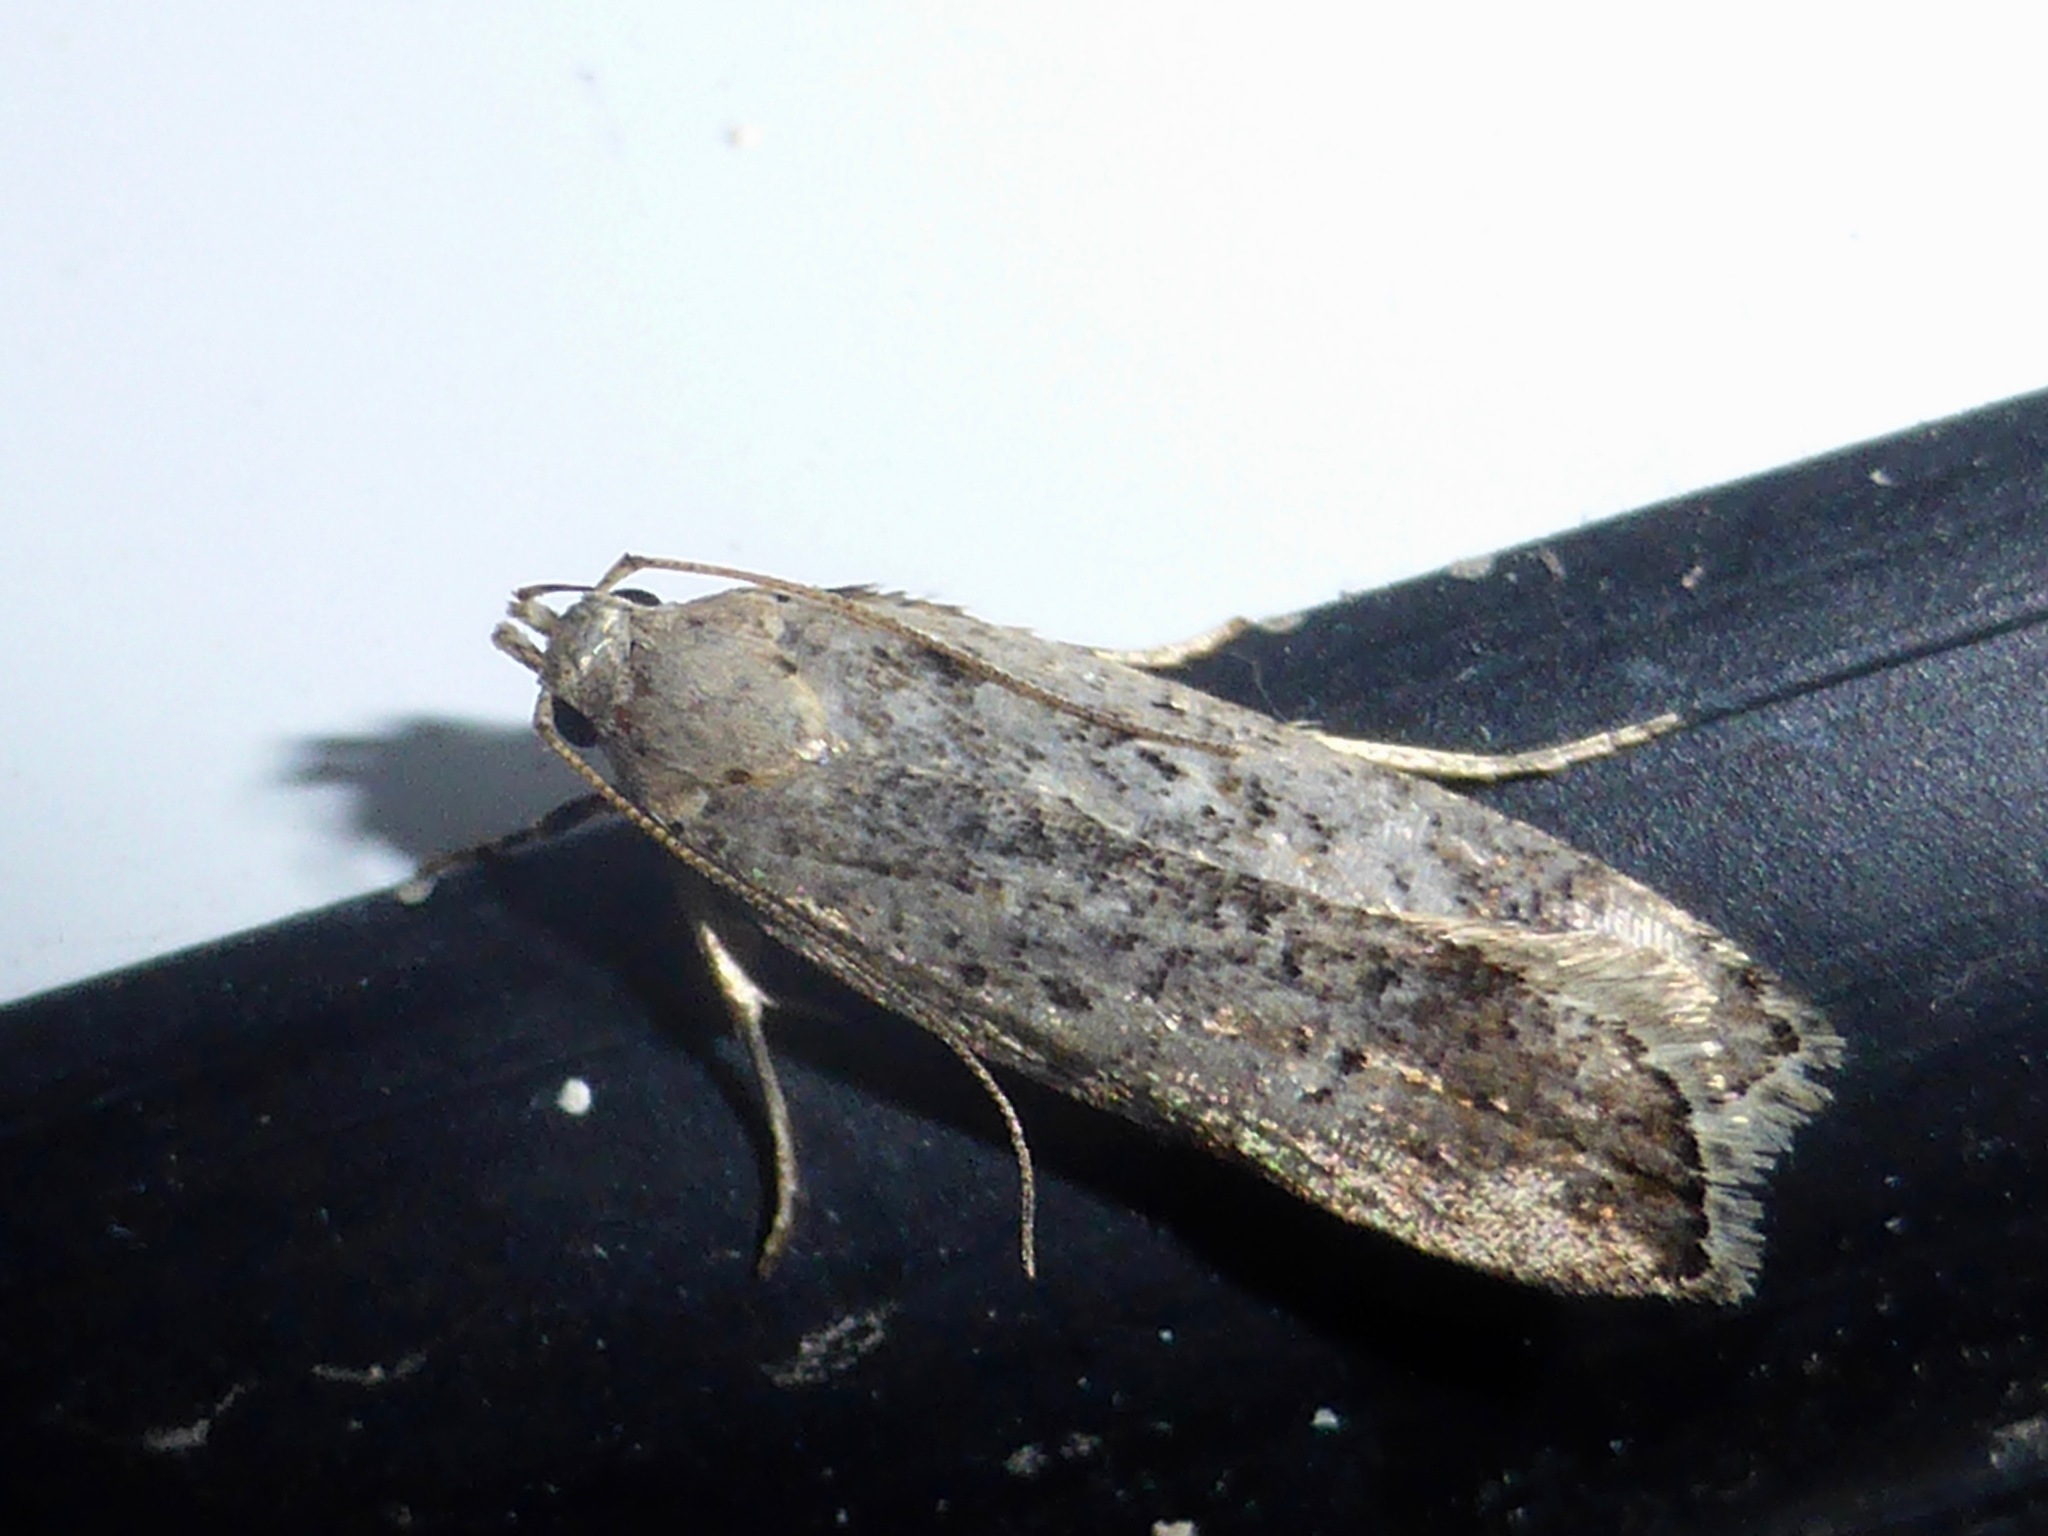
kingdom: Animalia
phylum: Arthropoda
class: Insecta
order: Lepidoptera
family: Gelechiidae
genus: Anisoplaca
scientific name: Anisoplaca achyrota
